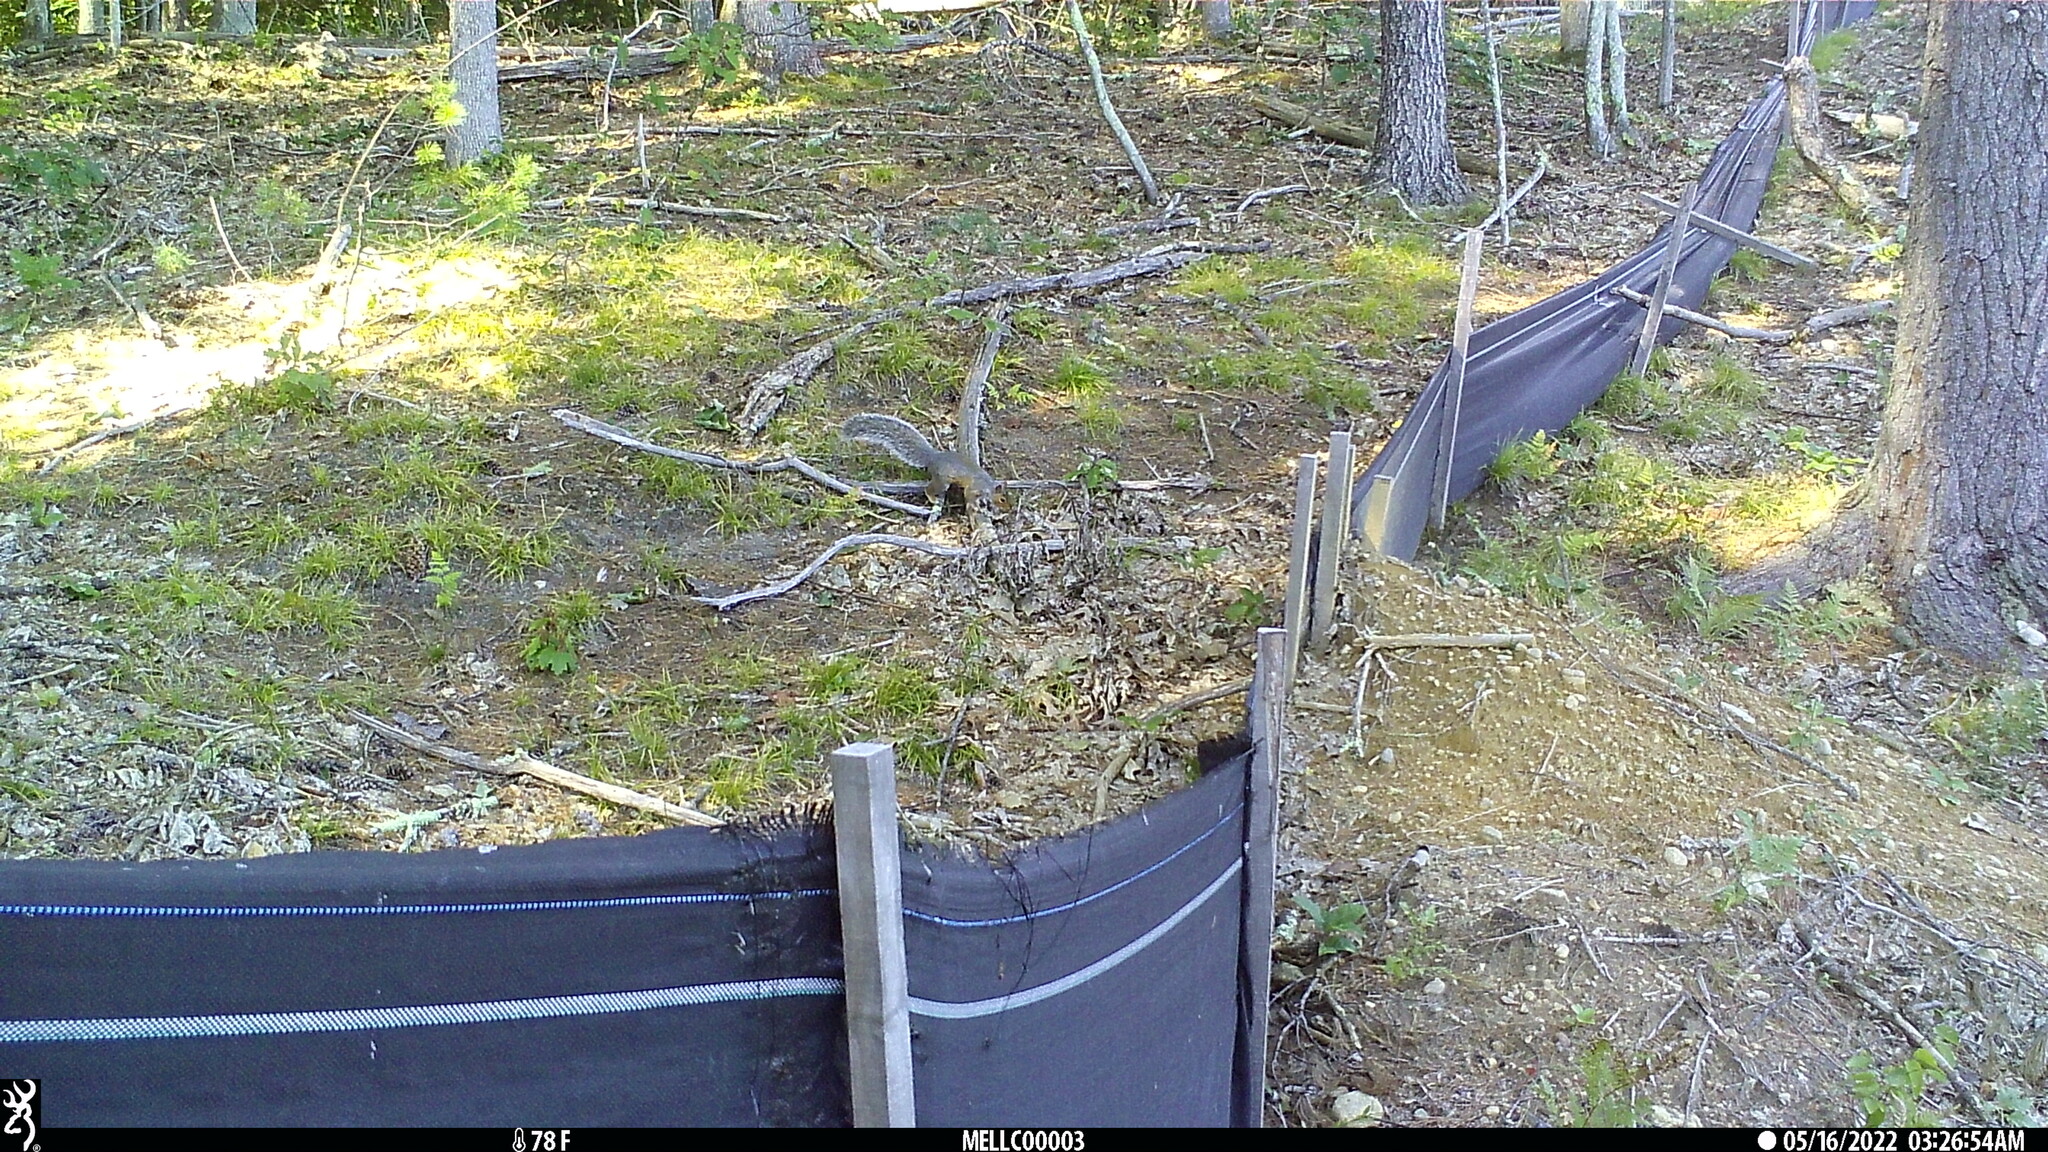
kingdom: Animalia
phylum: Chordata
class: Mammalia
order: Rodentia
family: Sciuridae
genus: Sciurus
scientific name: Sciurus carolinensis
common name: Eastern gray squirrel
